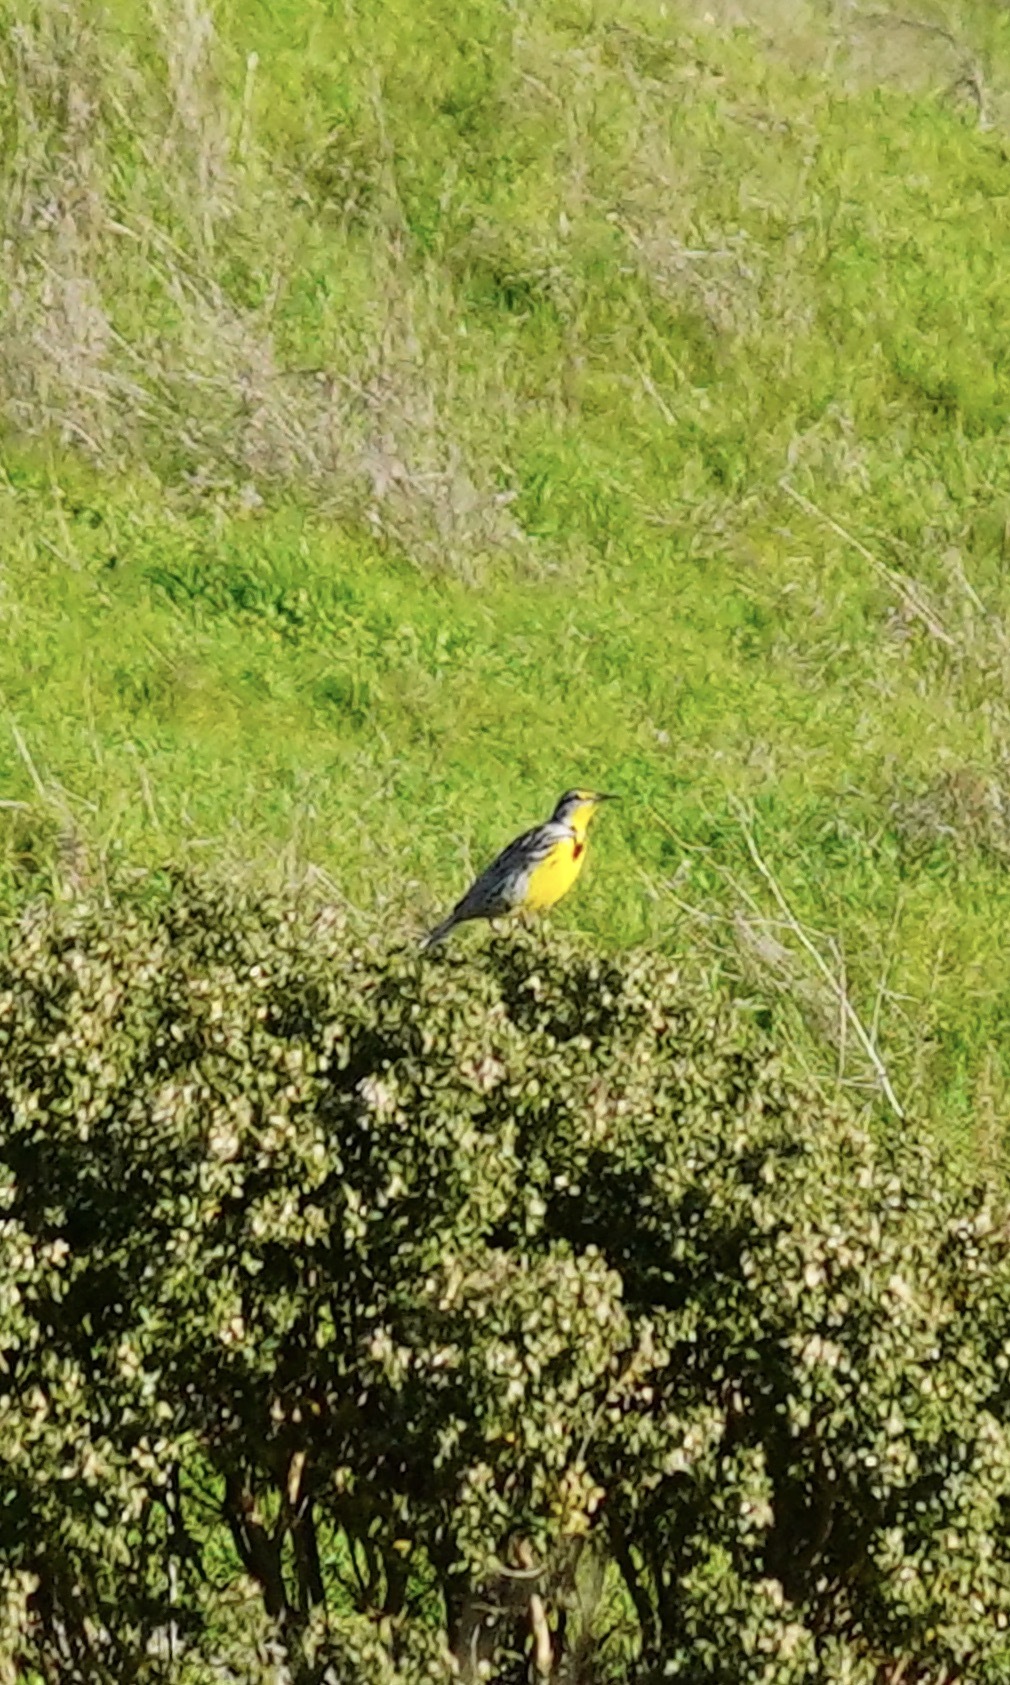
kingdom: Animalia
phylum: Chordata
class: Aves
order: Passeriformes
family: Icteridae
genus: Sturnella
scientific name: Sturnella neglecta
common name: Western meadowlark
